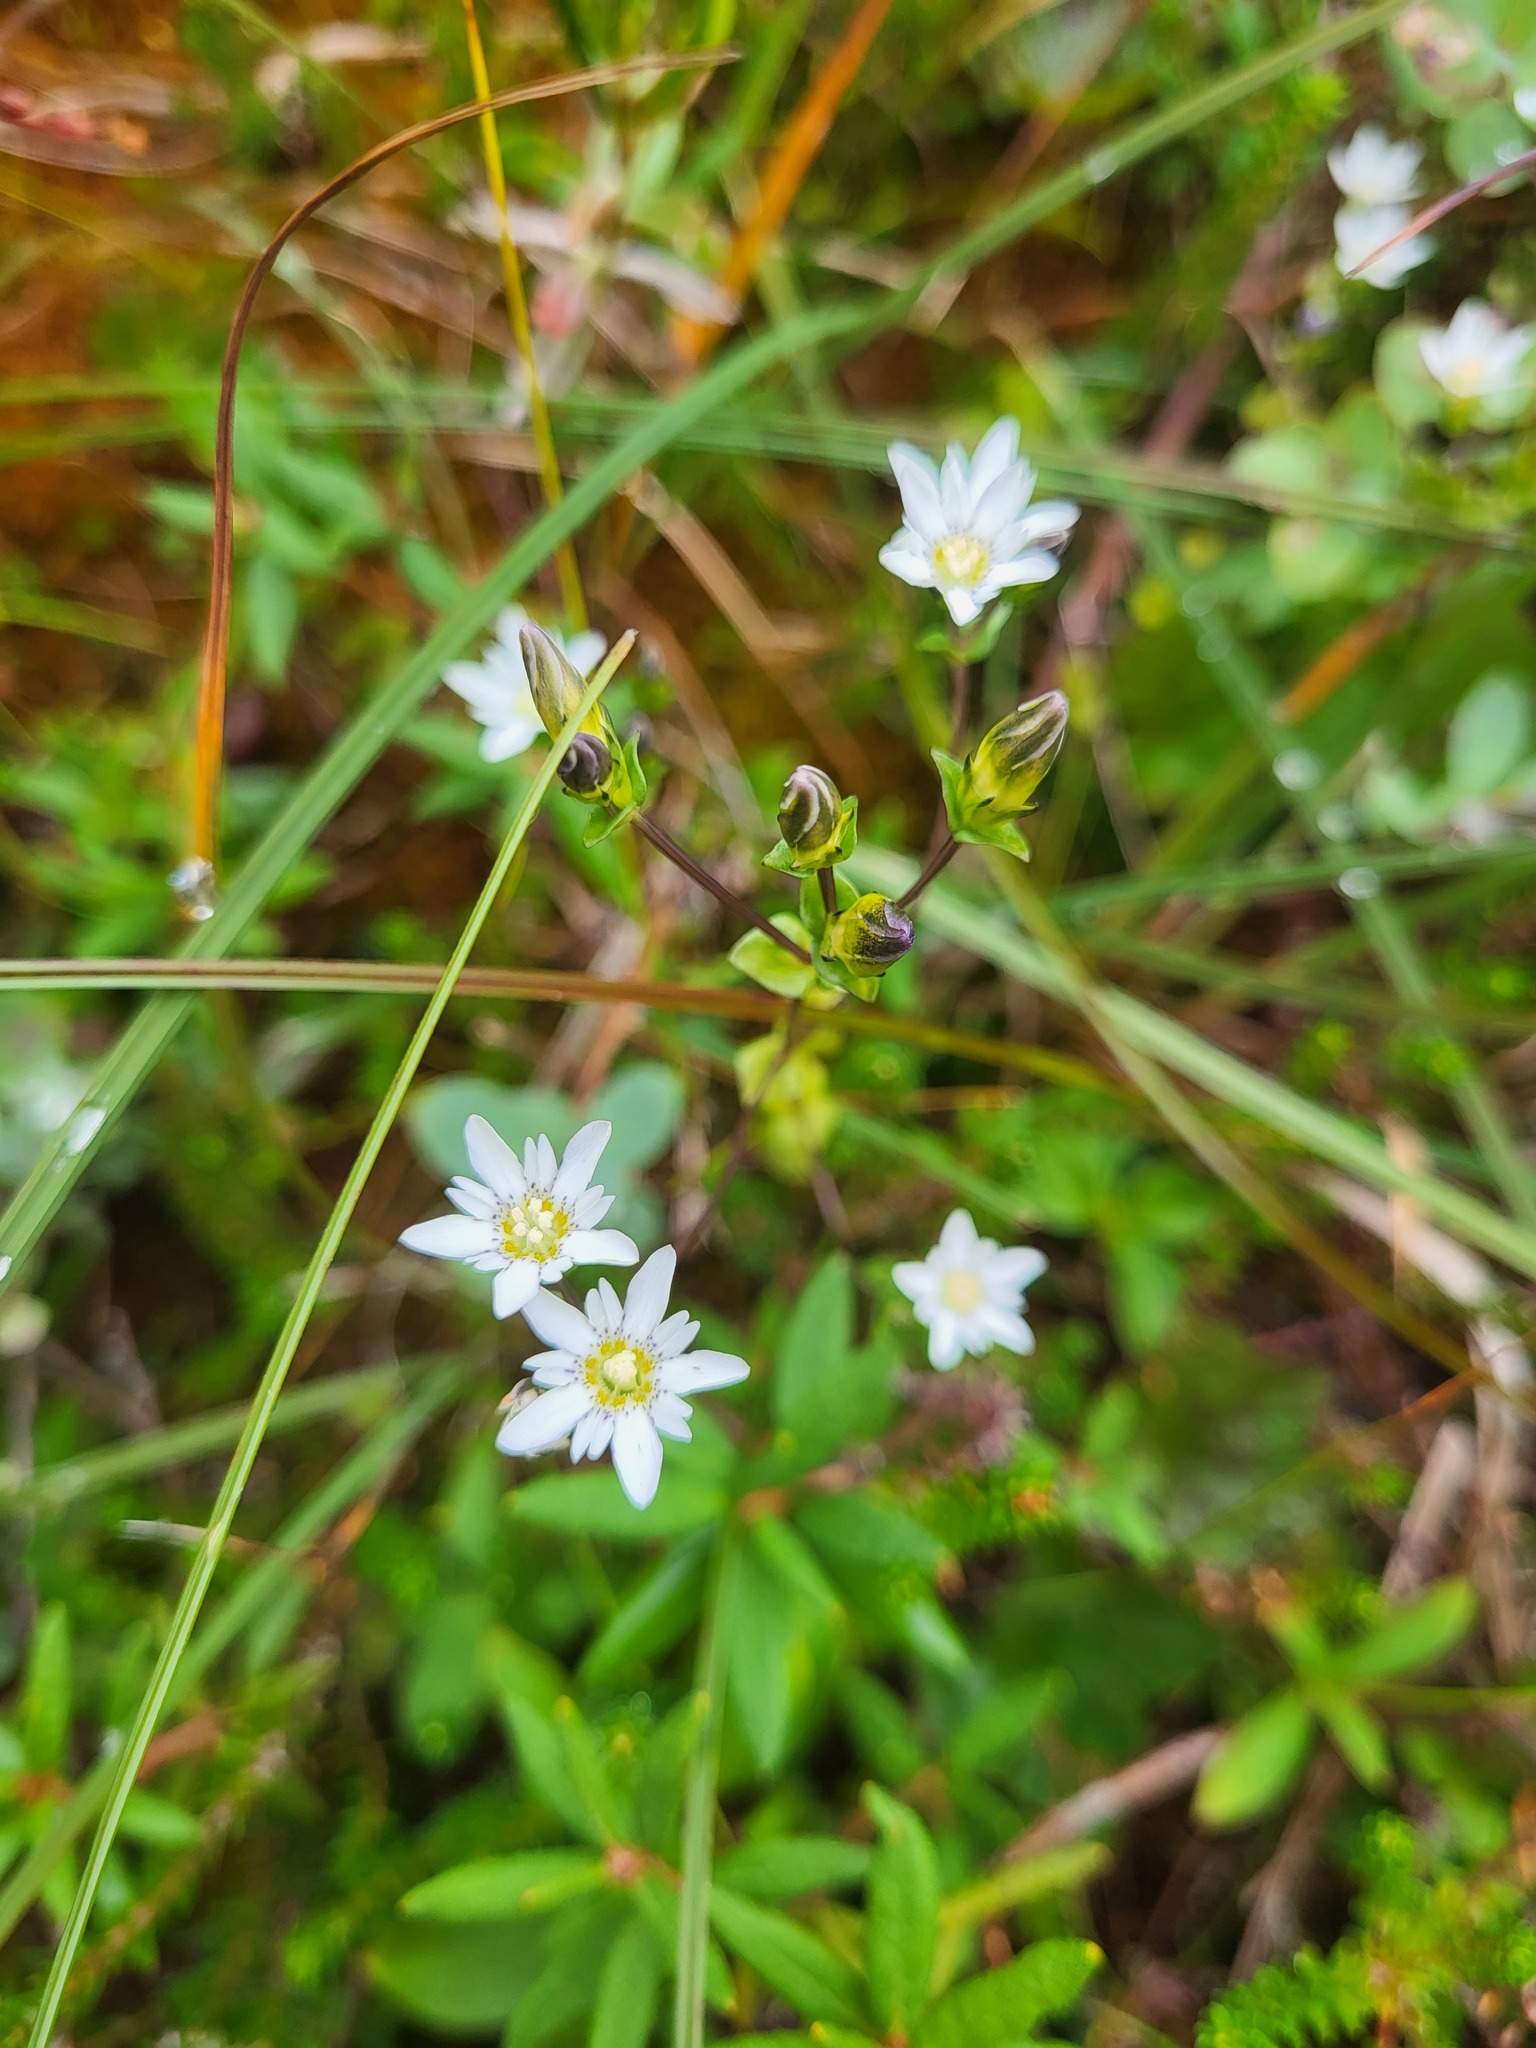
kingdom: Plantae
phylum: Tracheophyta
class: Magnoliopsida
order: Gentianales
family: Gentianaceae
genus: Gentiana
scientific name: Gentiana douglasiana
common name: Swamp gentian
